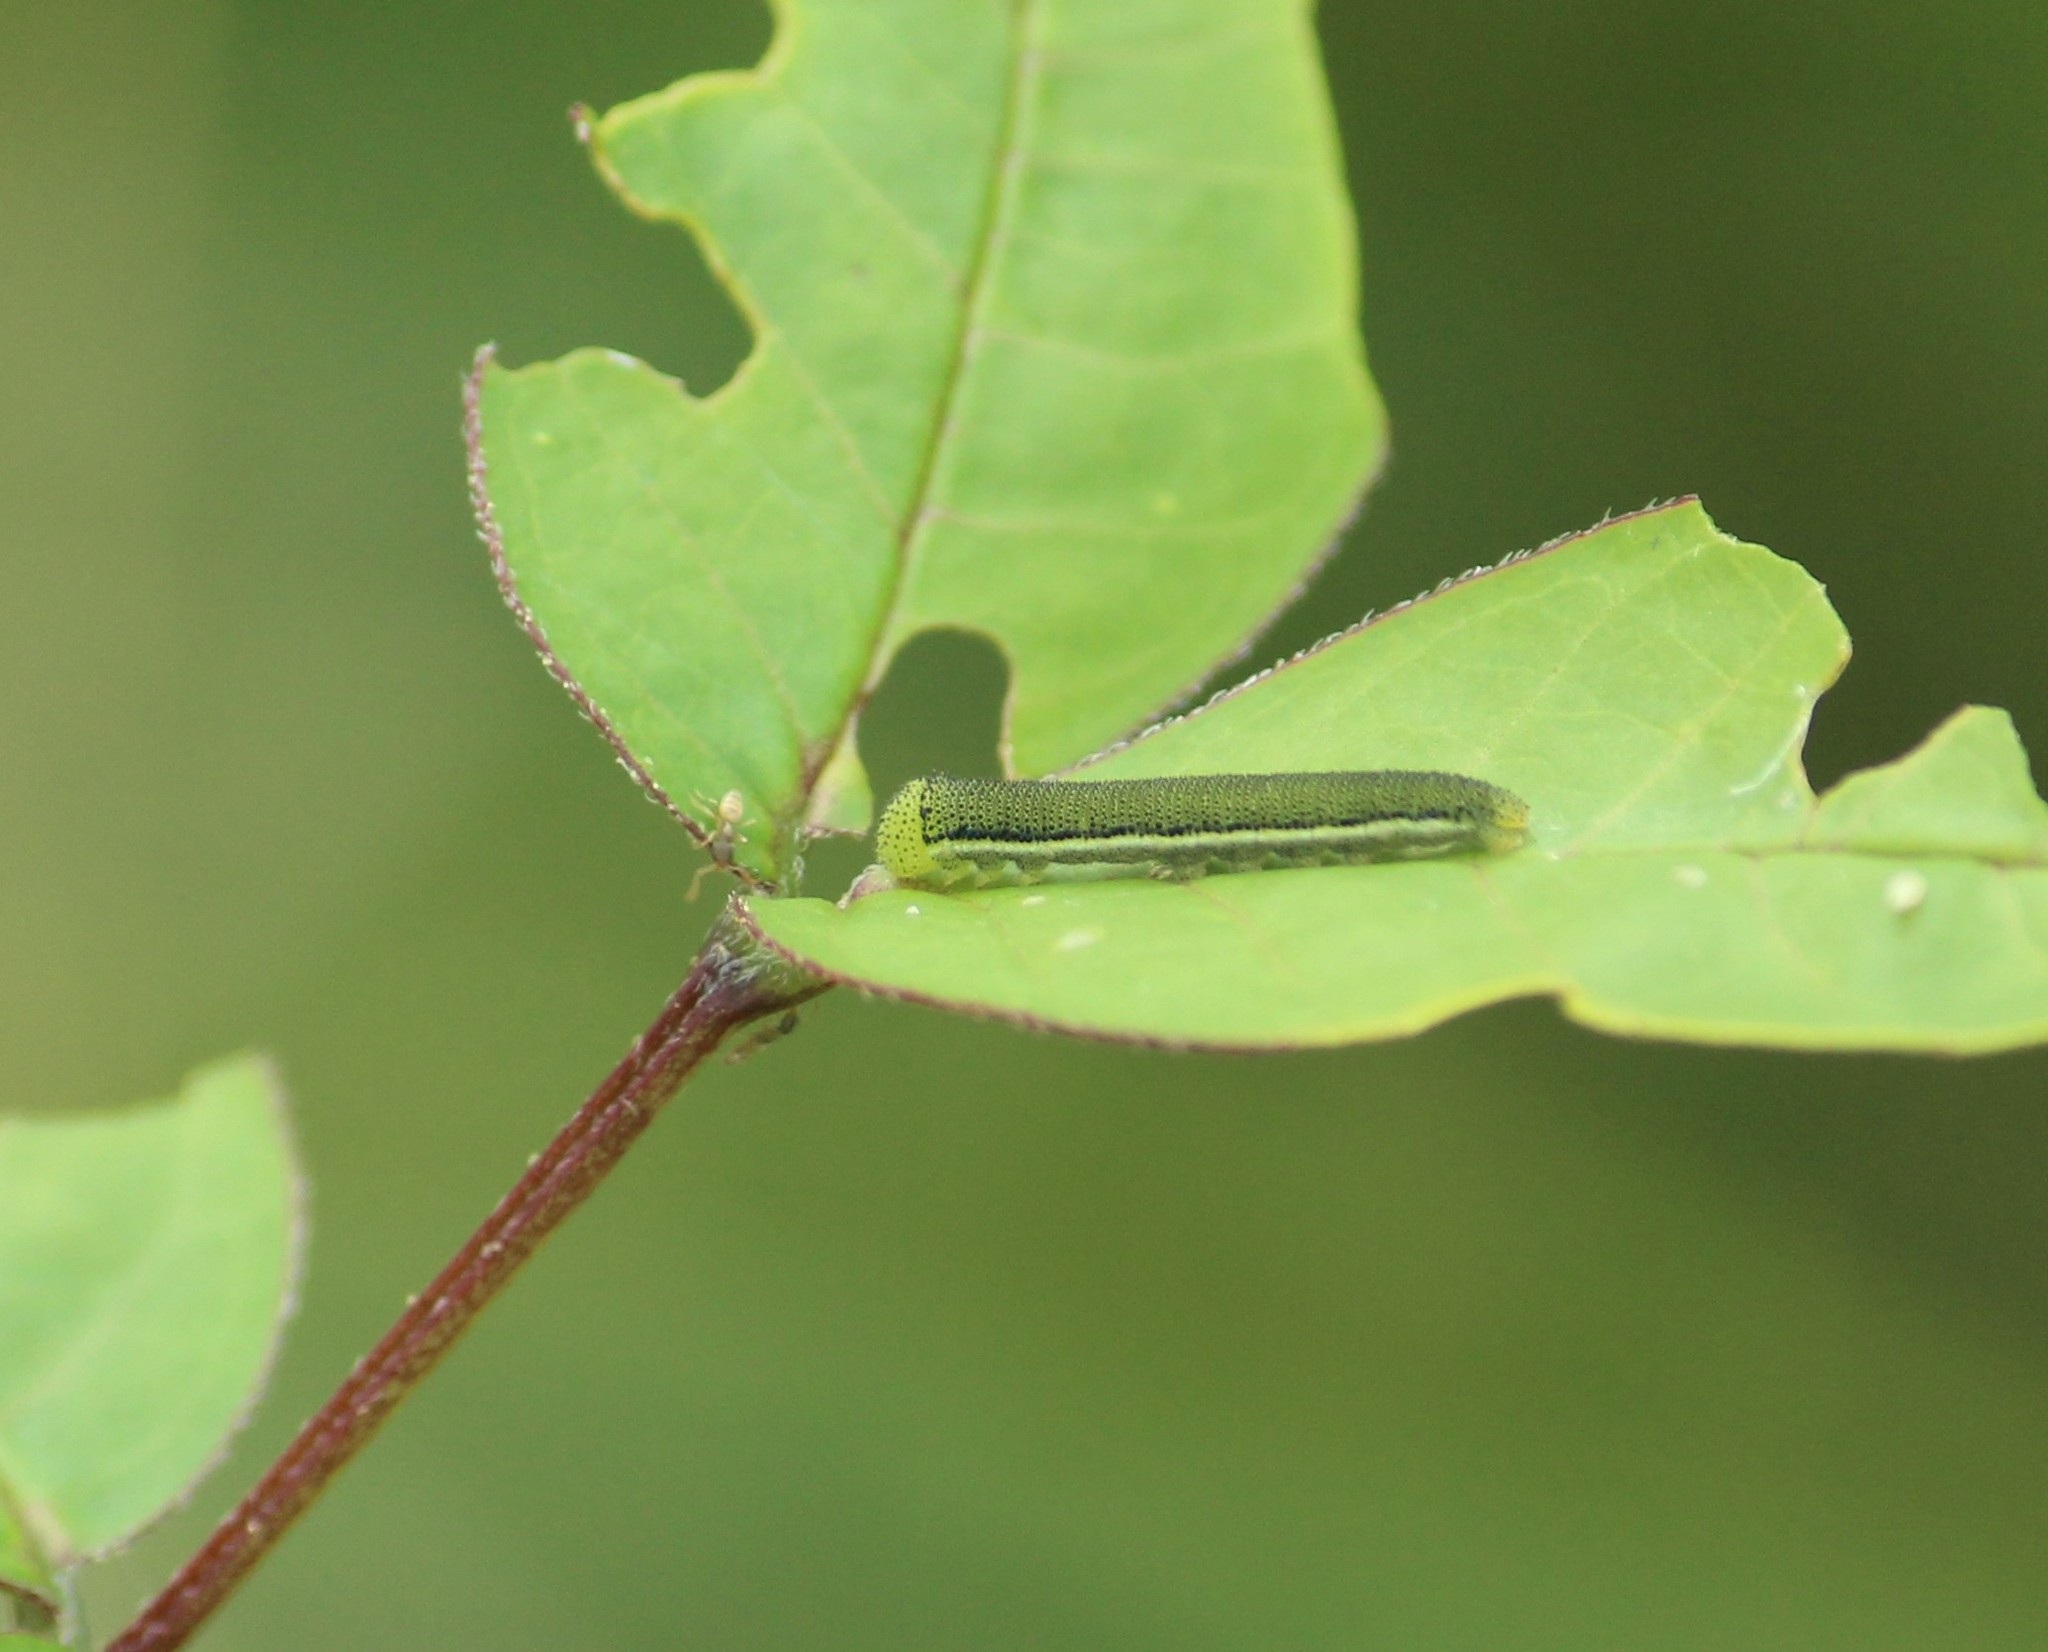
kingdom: Animalia
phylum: Arthropoda
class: Insecta
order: Lepidoptera
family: Pieridae
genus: Catopsilia
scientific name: Catopsilia pyranthe
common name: Mottled emigrant
